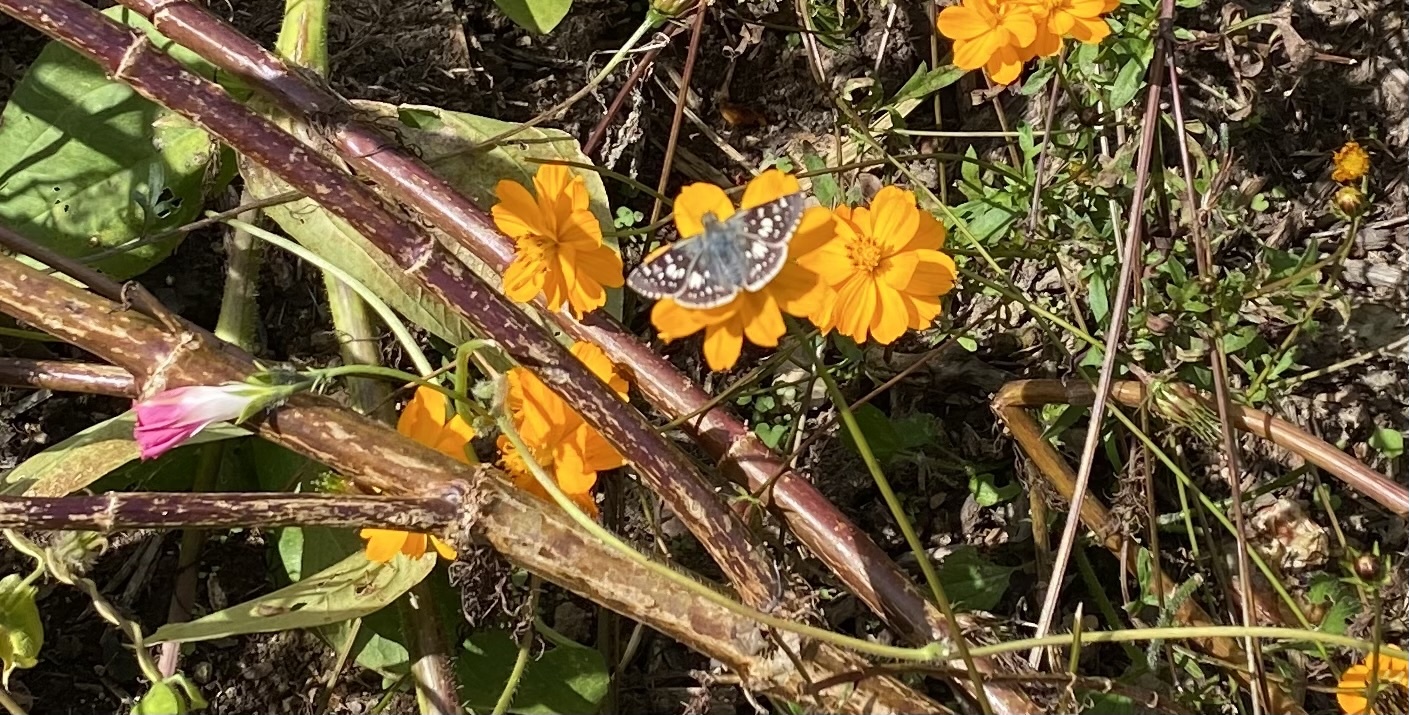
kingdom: Animalia
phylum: Arthropoda
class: Insecta
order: Lepidoptera
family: Hesperiidae
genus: Burnsius
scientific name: Burnsius communis
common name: Common checkered-skipper
